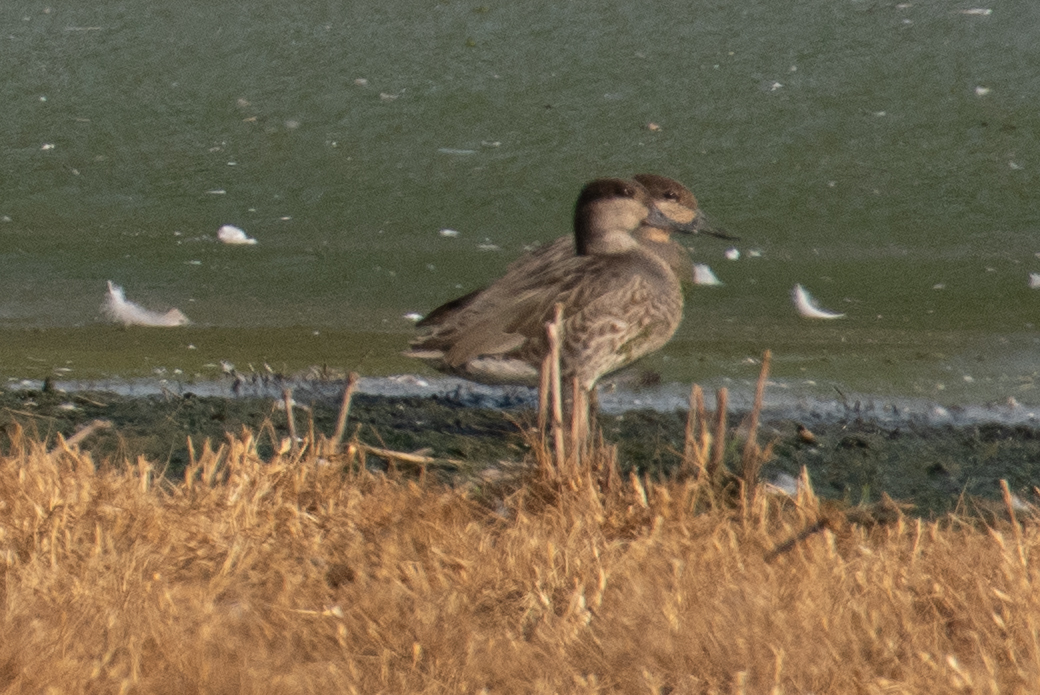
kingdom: Animalia
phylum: Chordata
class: Aves
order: Anseriformes
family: Anatidae
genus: Anas
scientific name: Anas crecca
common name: Eurasian teal
